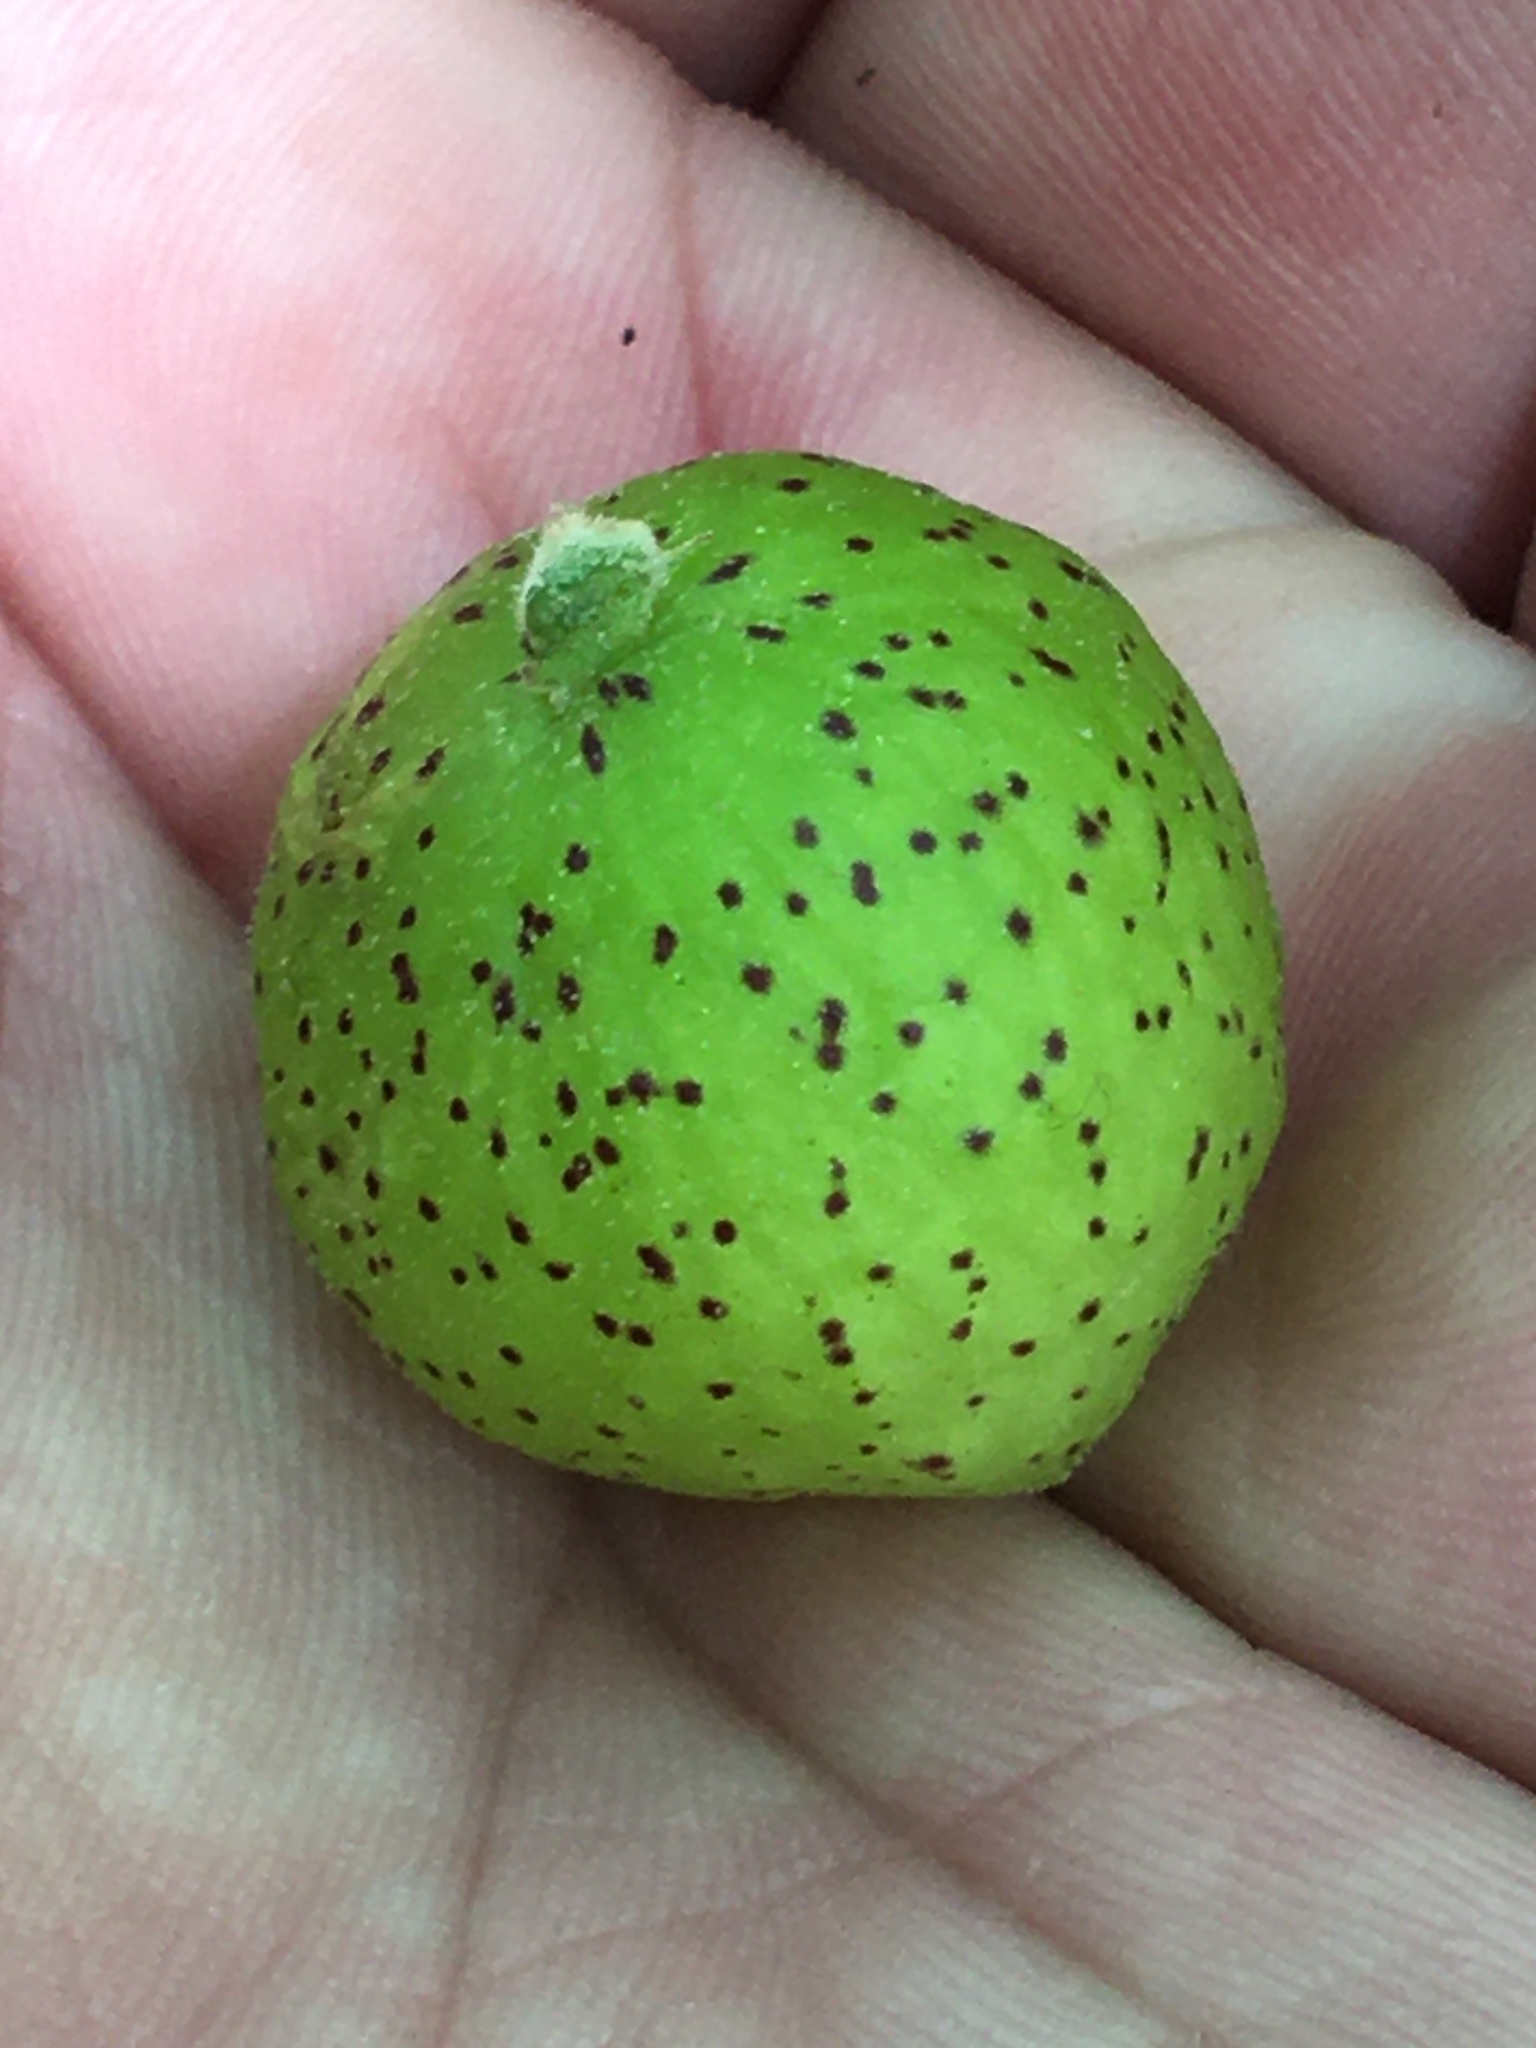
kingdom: Animalia
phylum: Arthropoda
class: Insecta
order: Hymenoptera
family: Cynipidae
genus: Amphibolips
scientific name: Amphibolips
